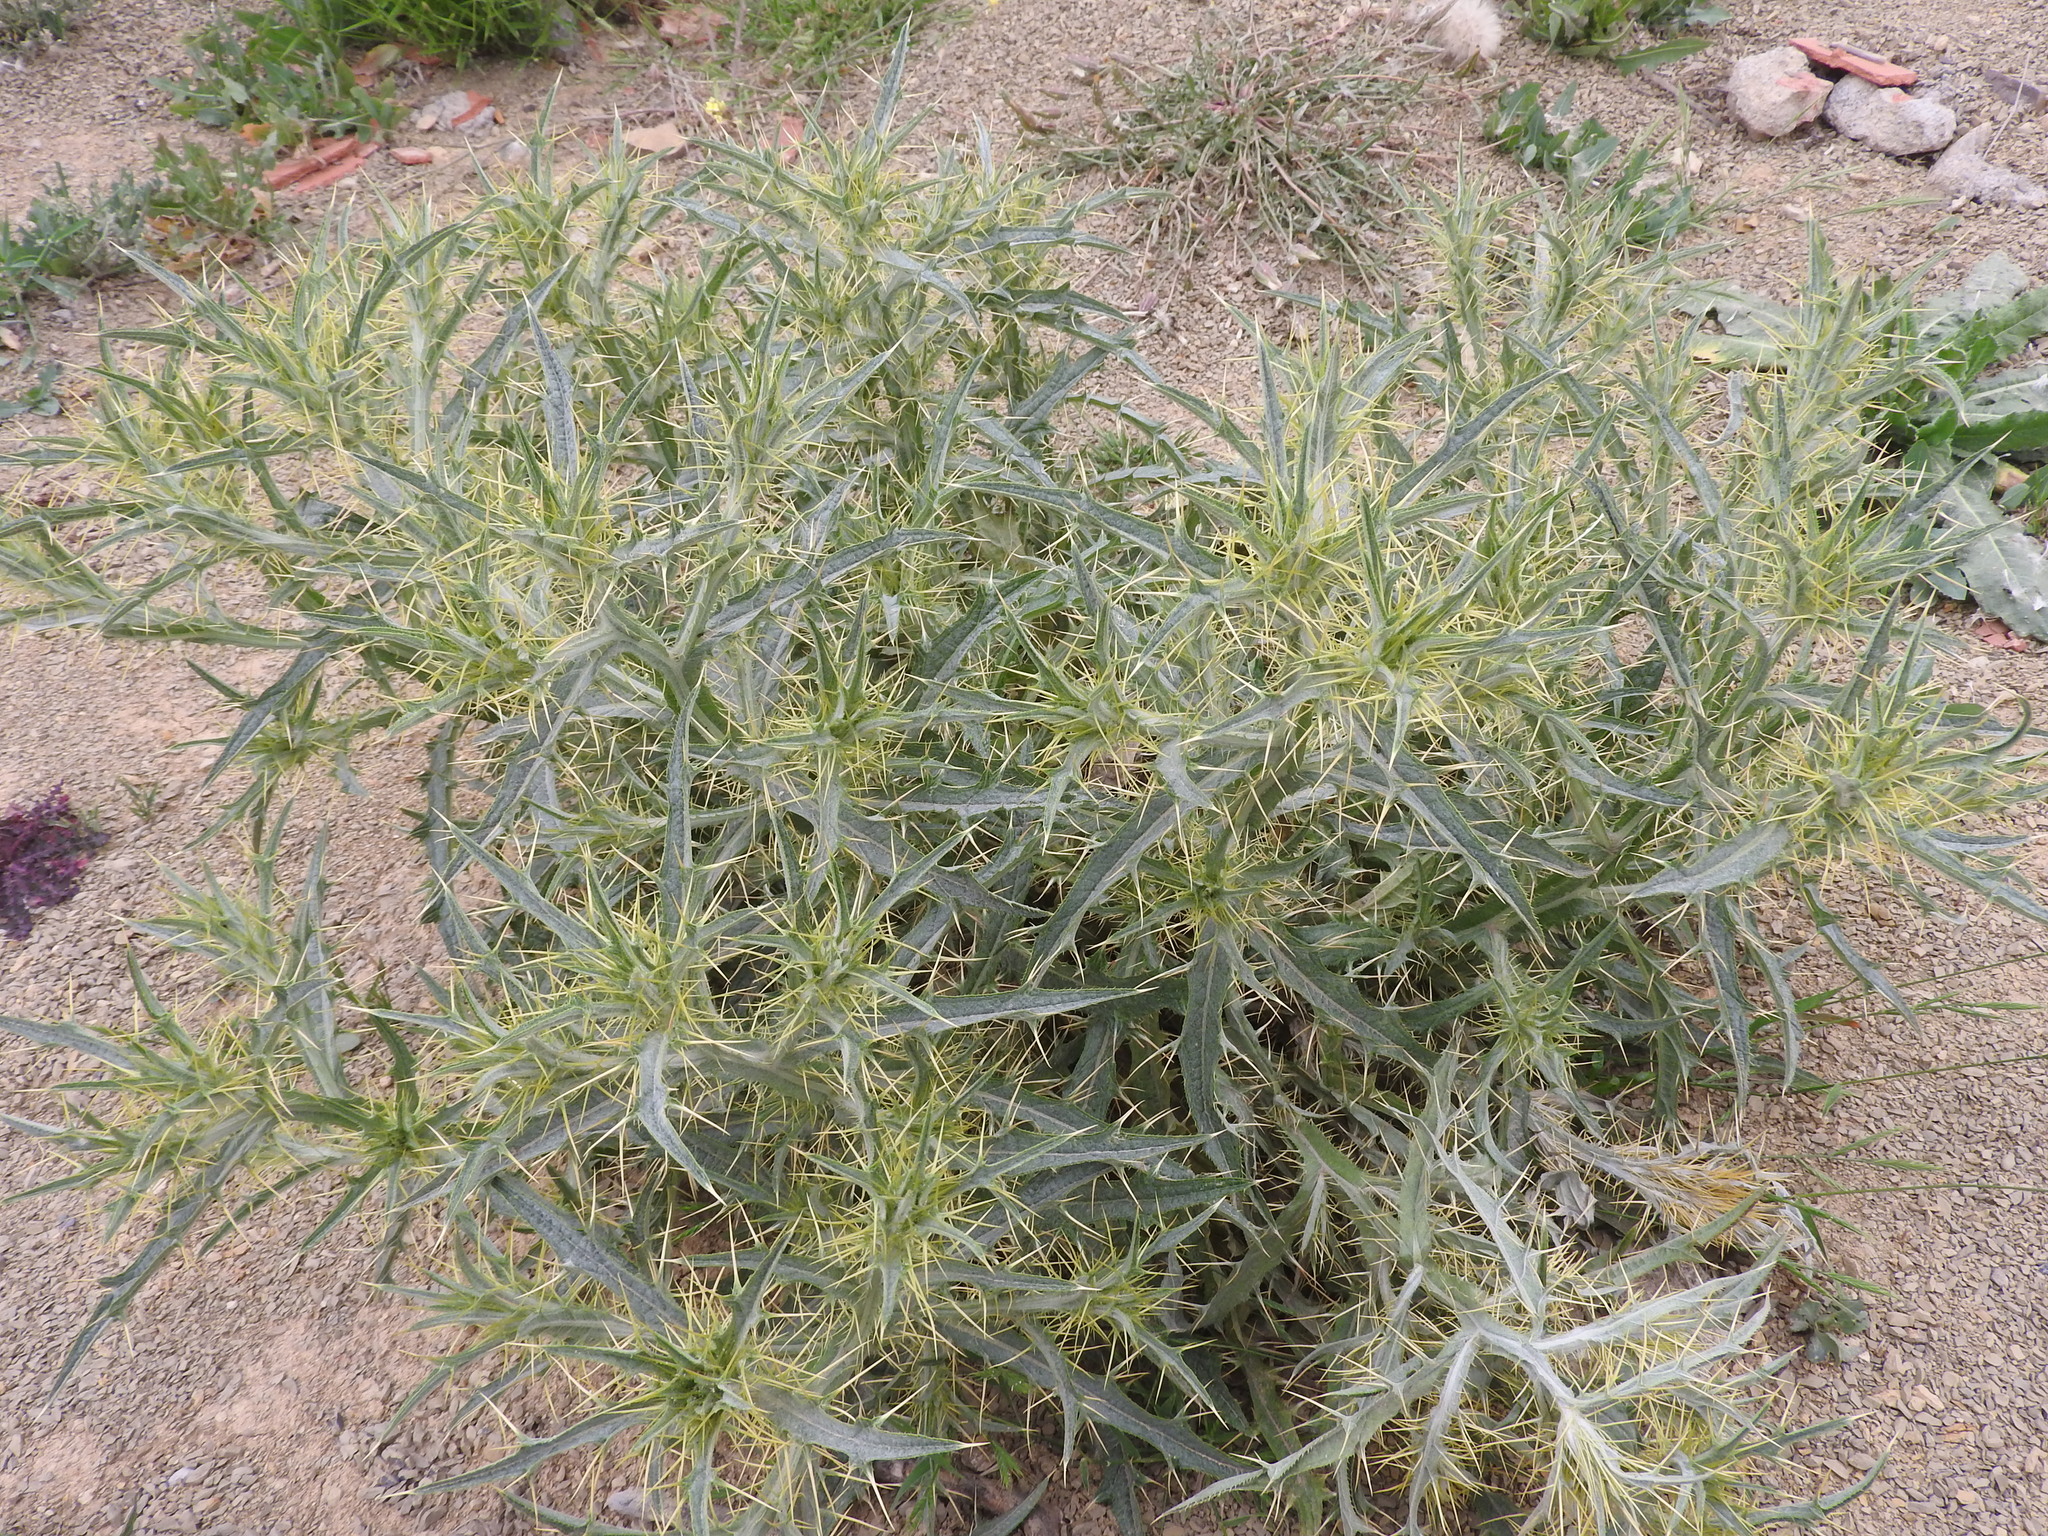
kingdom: Plantae
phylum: Tracheophyta
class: Magnoliopsida
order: Asterales
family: Asteraceae
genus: Picnomon
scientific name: Picnomon acarna
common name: Soldier thistle
